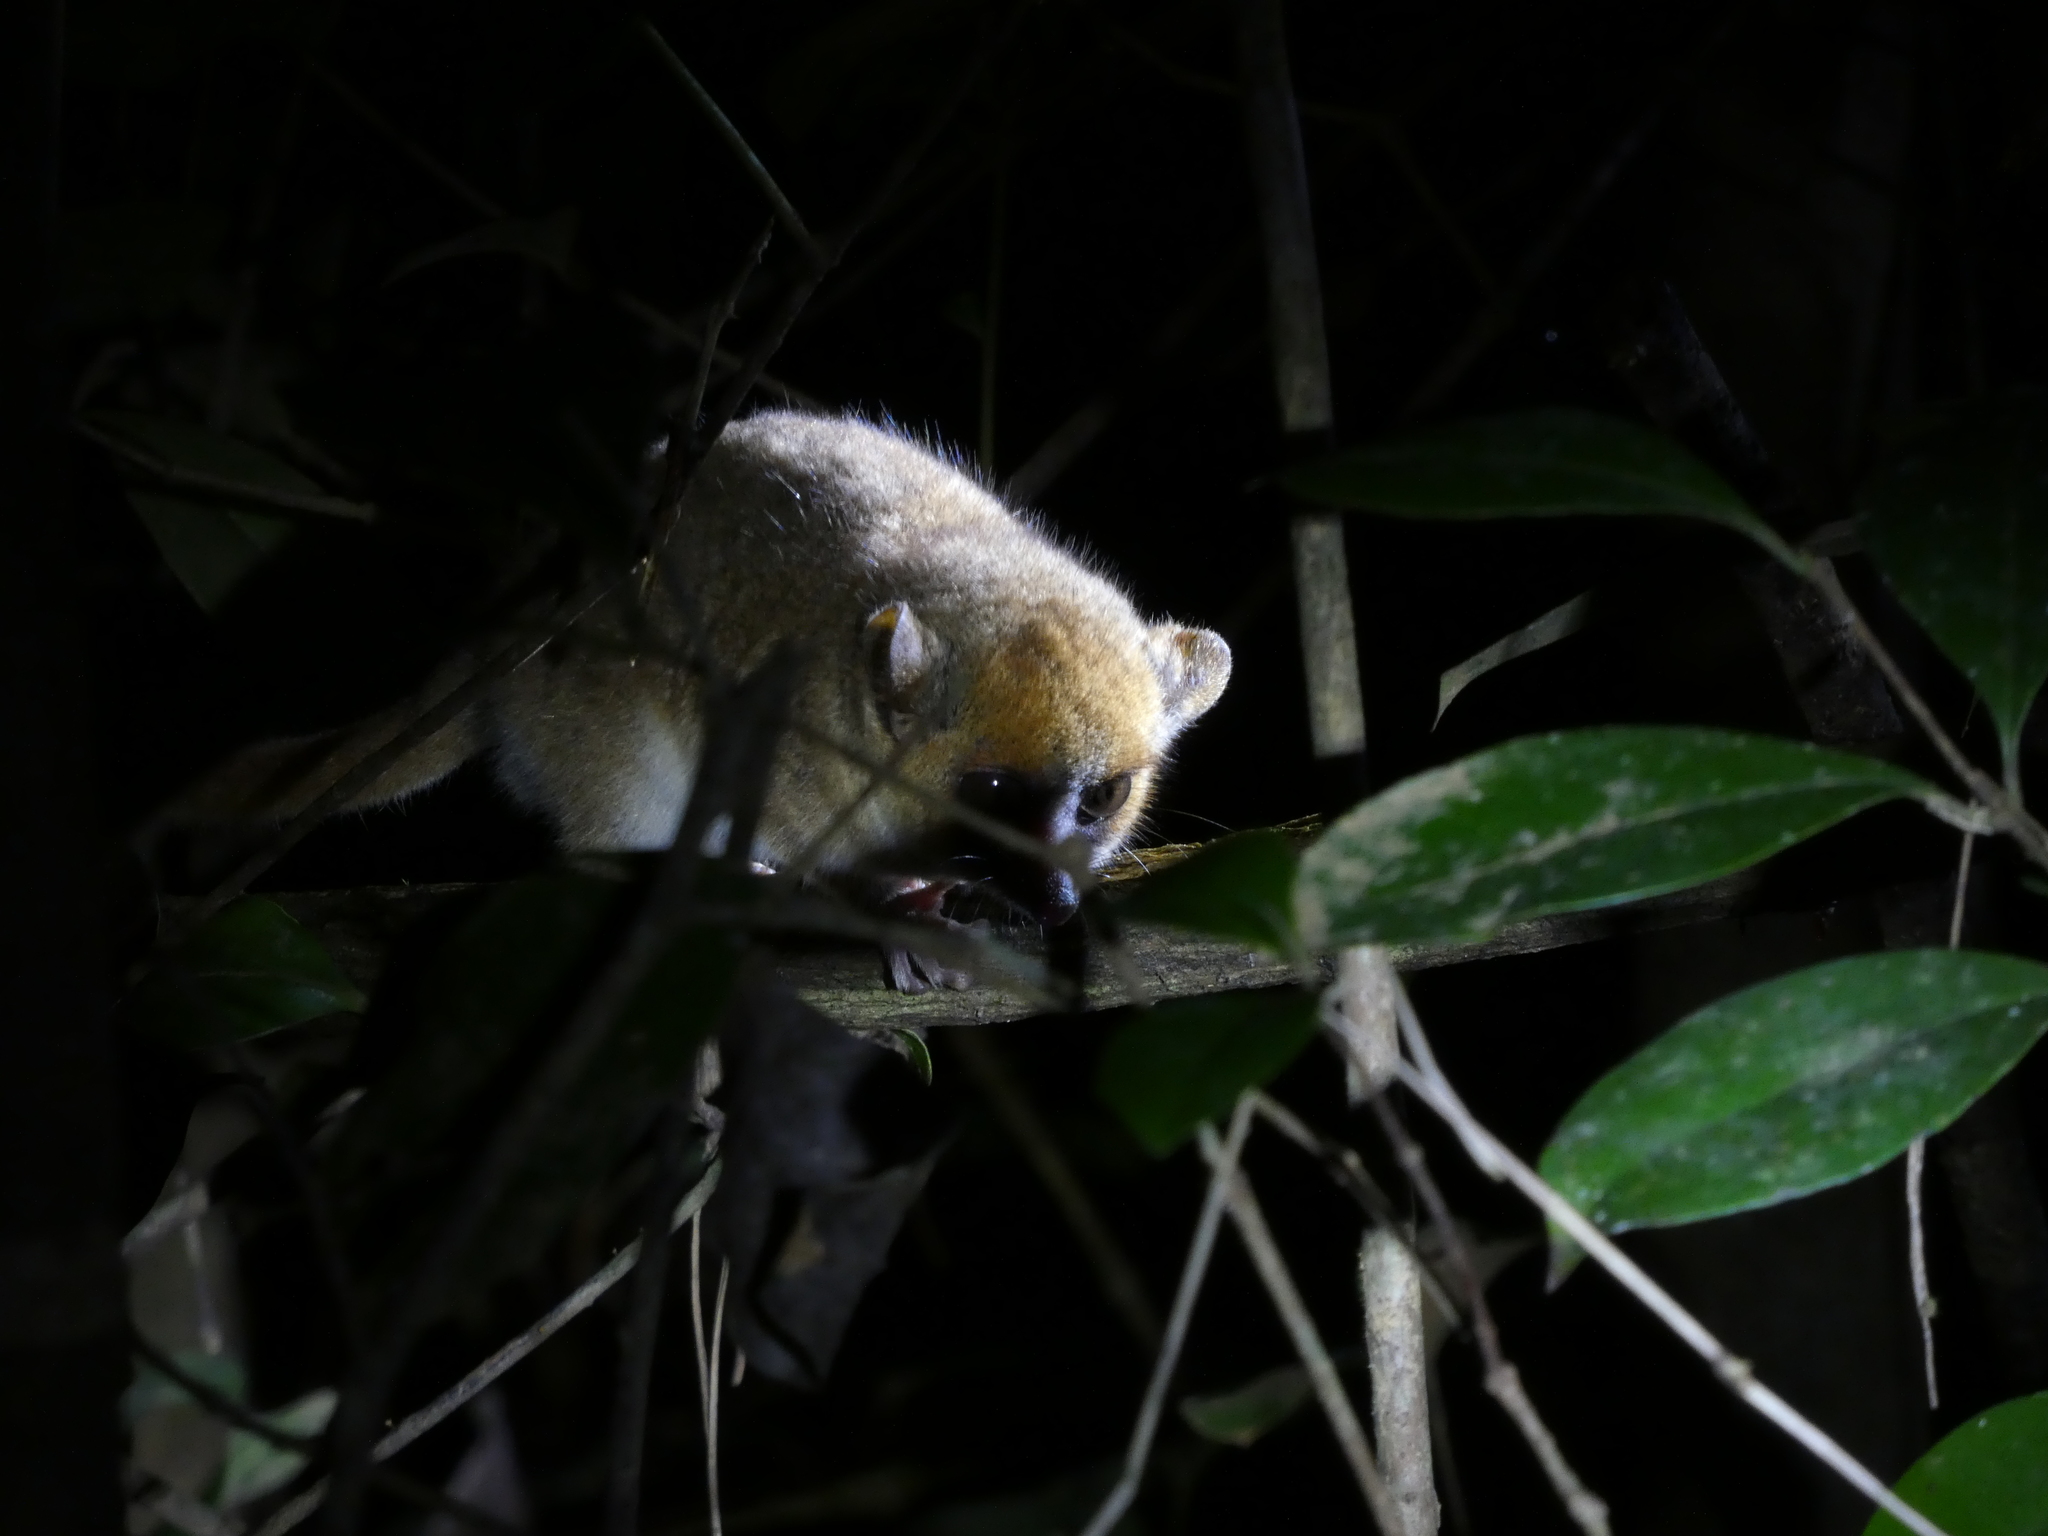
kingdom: Animalia
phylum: Chordata
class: Mammalia
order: Primates
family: Cheirogaleidae
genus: Microcebus
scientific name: Microcebus lehilahytsara
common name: Goodman's mouse lemur
